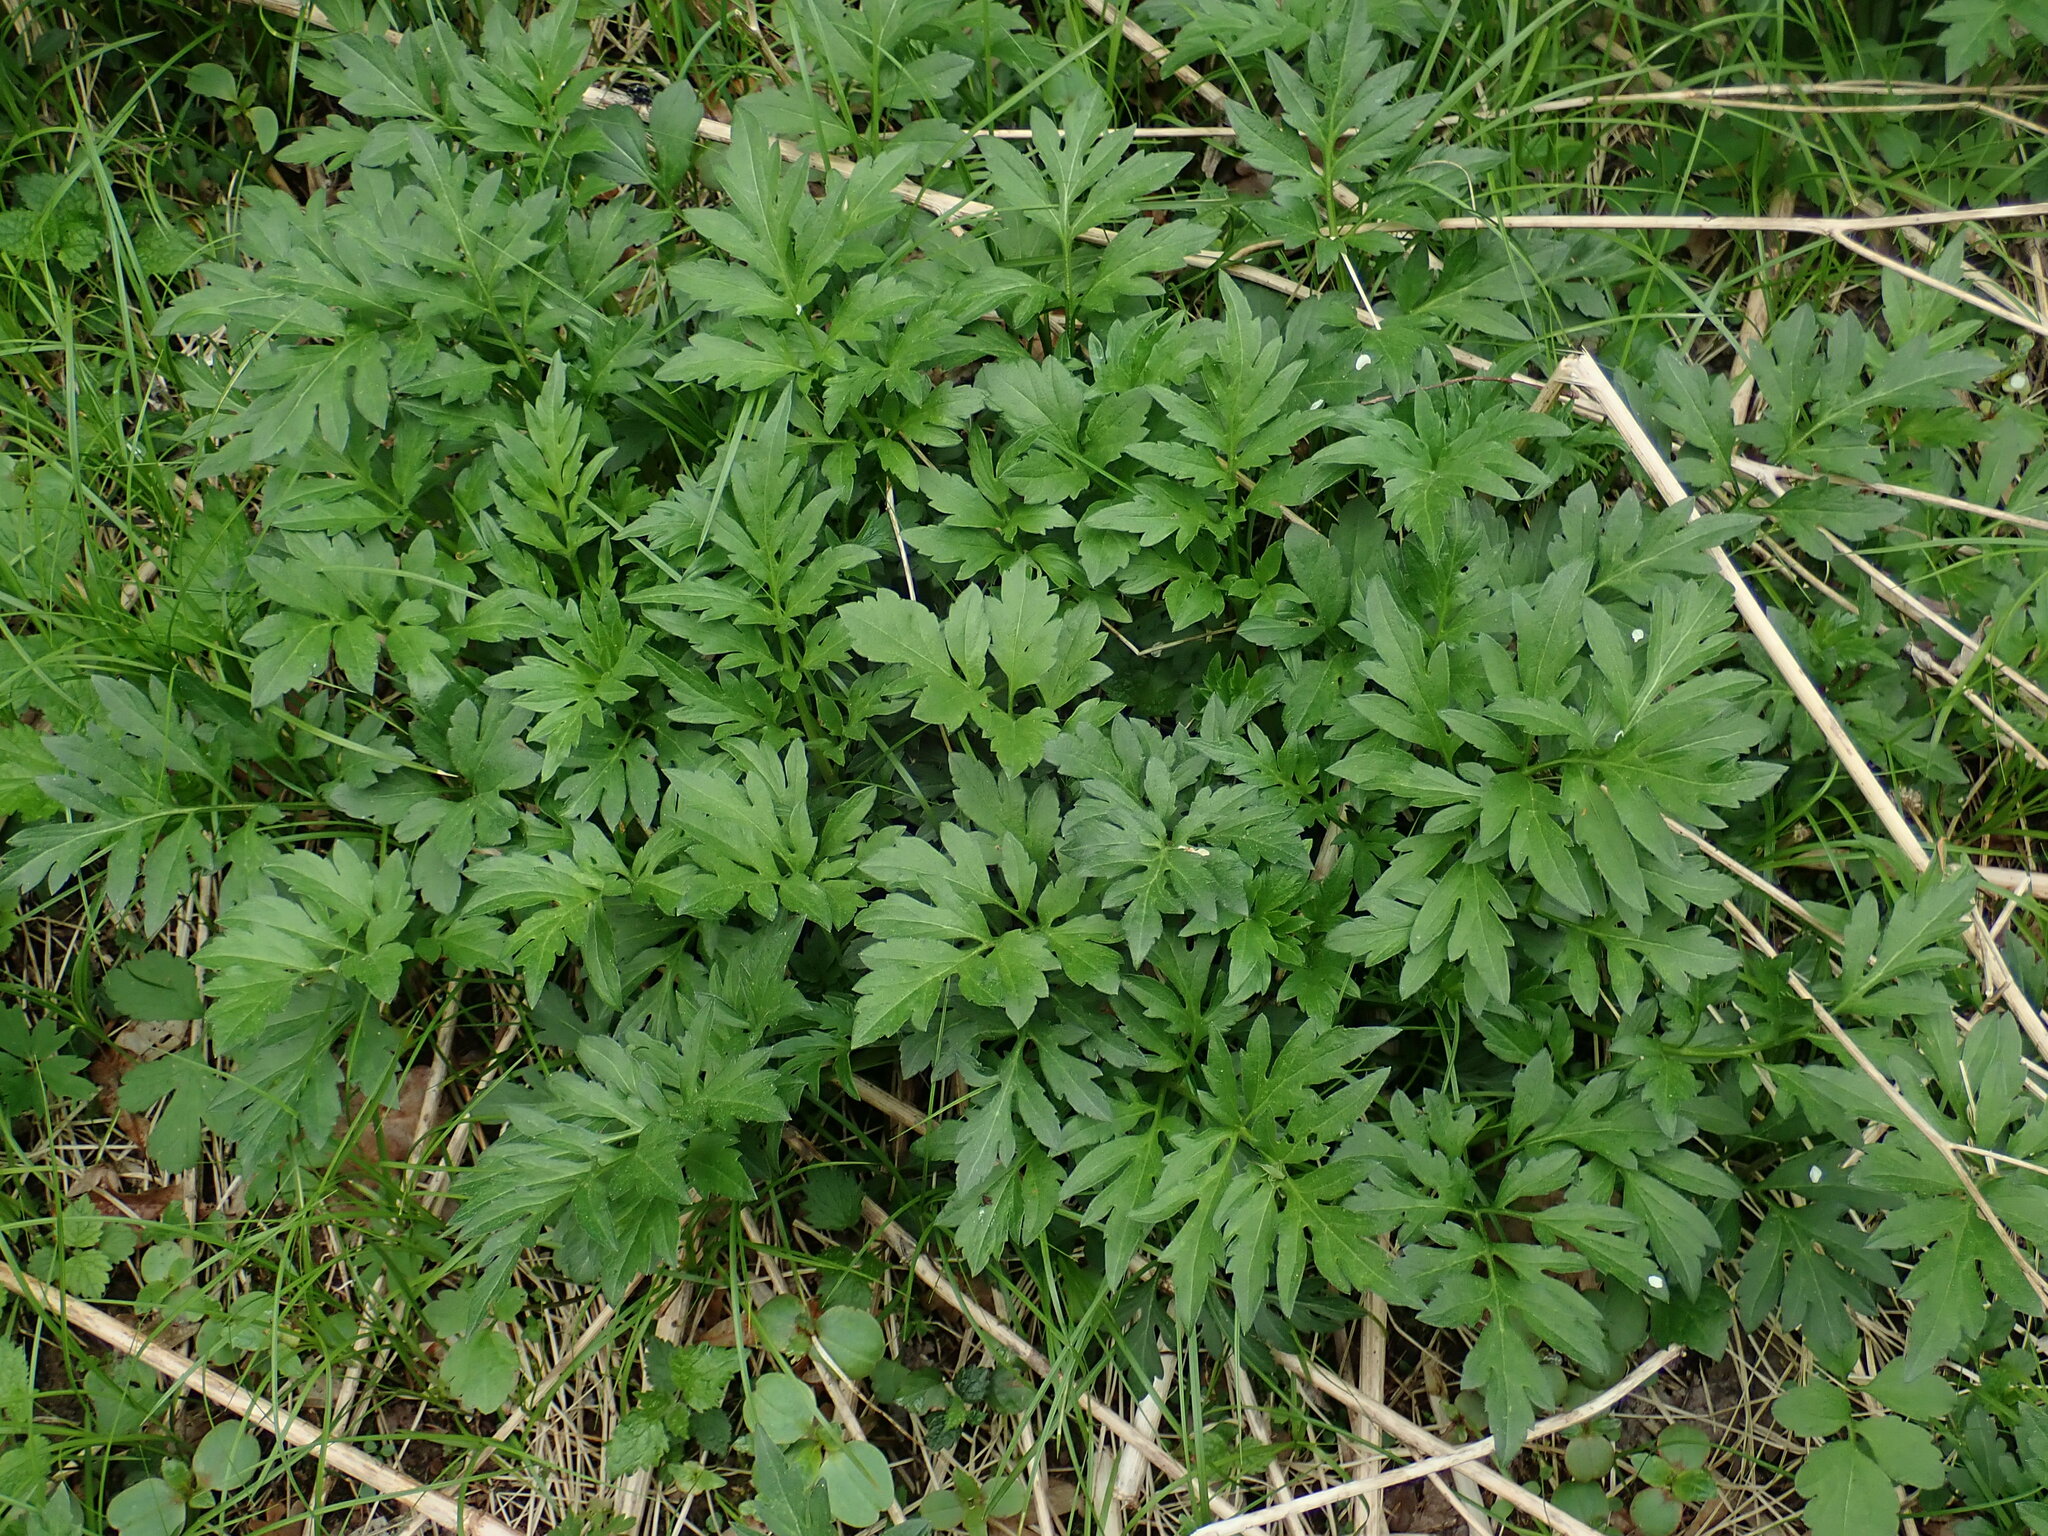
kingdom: Plantae
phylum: Tracheophyta
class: Magnoliopsida
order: Asterales
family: Asteraceae
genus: Rudbeckia
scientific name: Rudbeckia laciniata
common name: Coneflower
